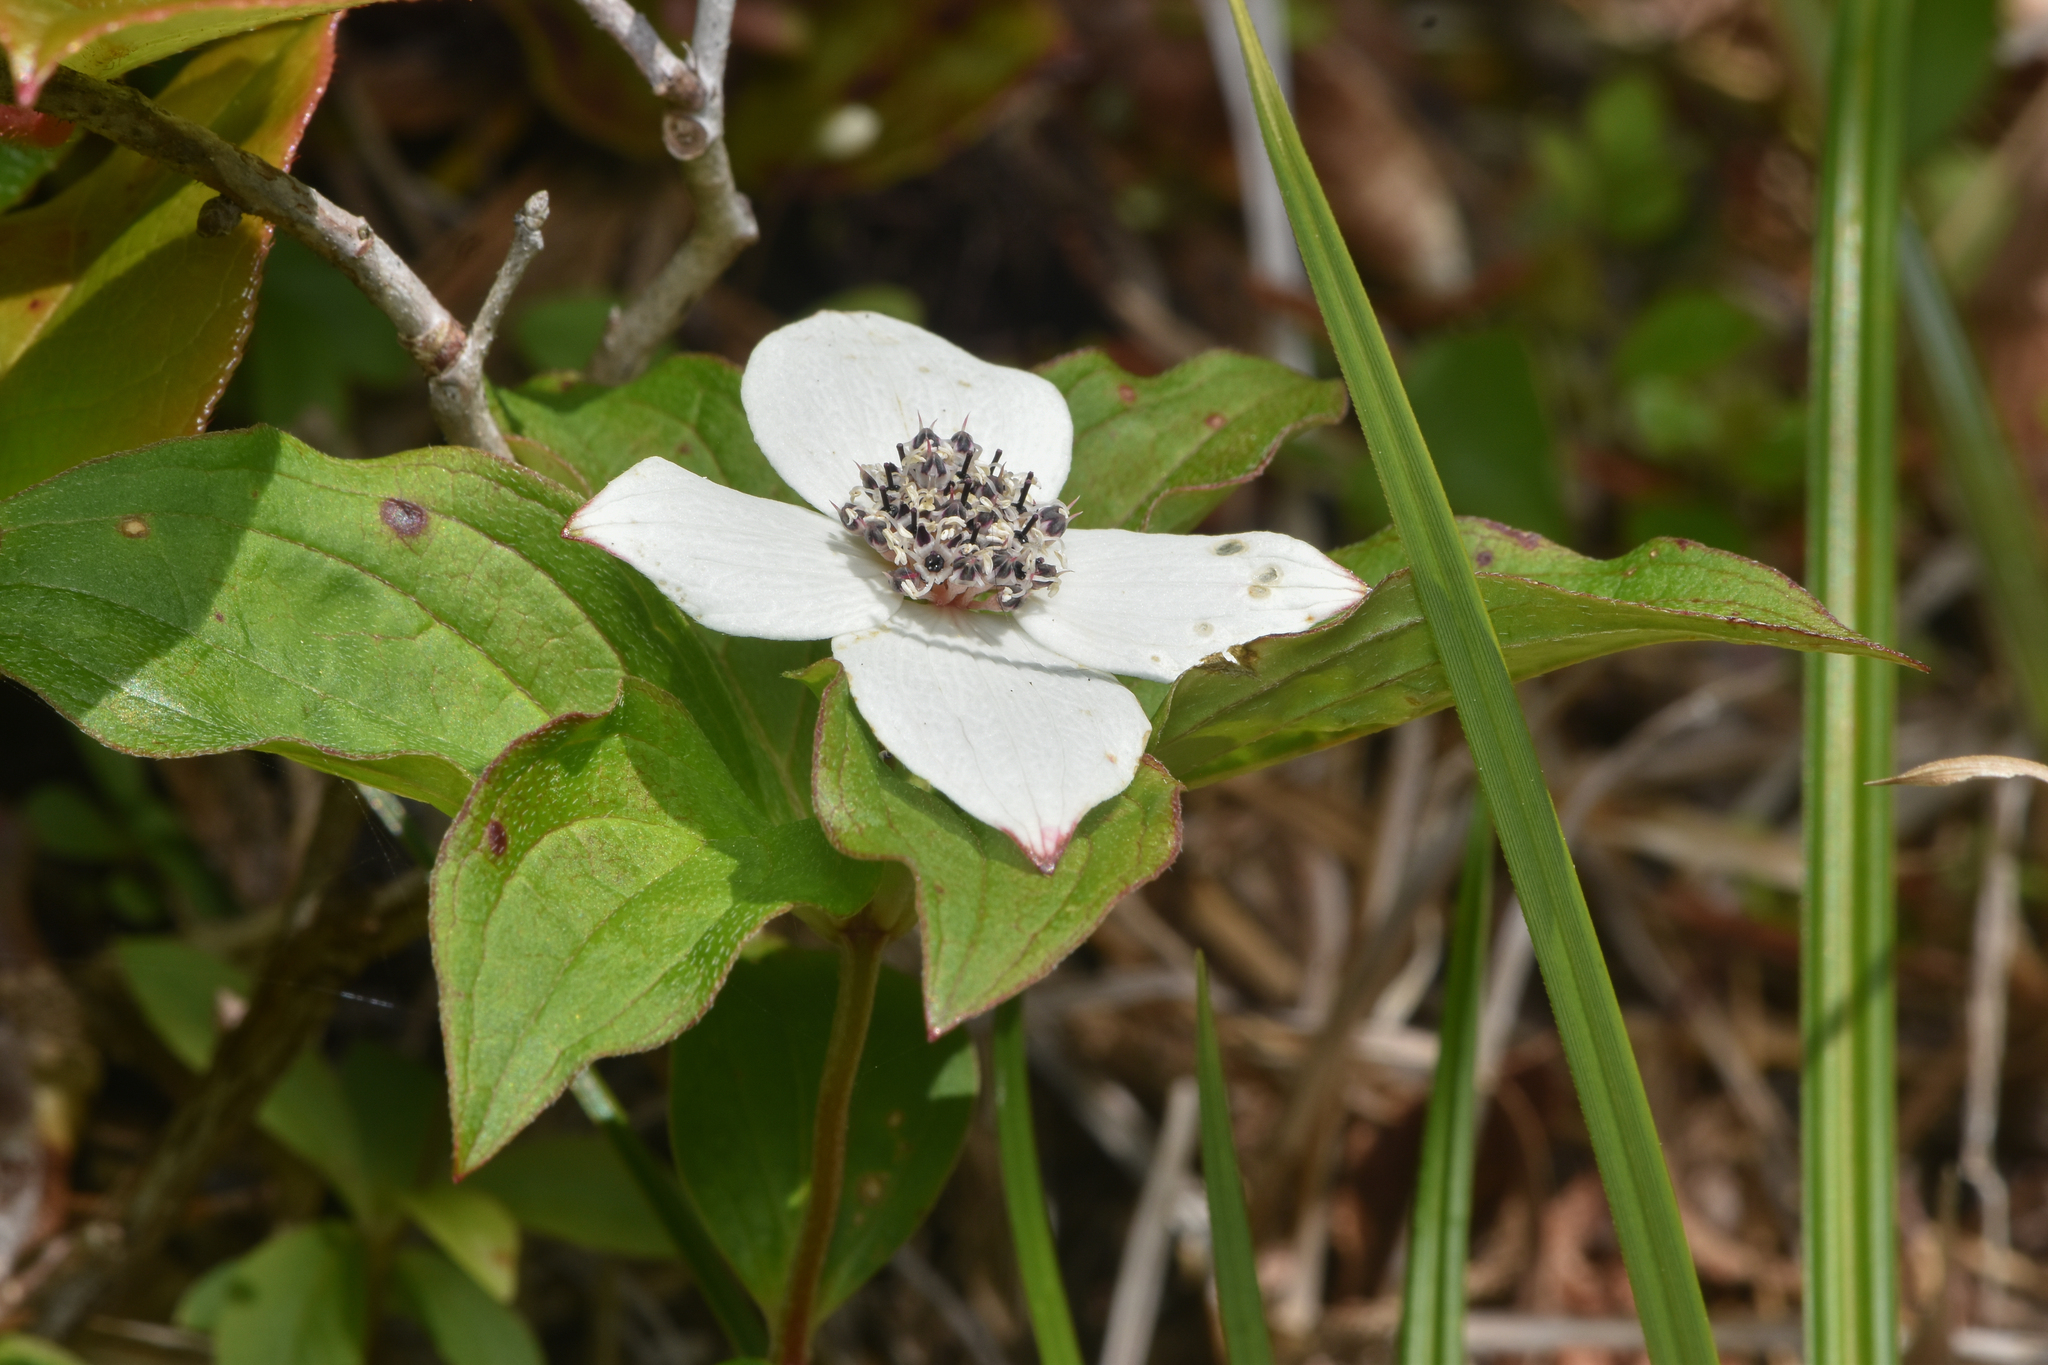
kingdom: Plantae
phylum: Tracheophyta
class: Magnoliopsida
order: Cornales
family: Cornaceae
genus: Cornus
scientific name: Cornus unalaschkensis
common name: Alaska bunchberry
